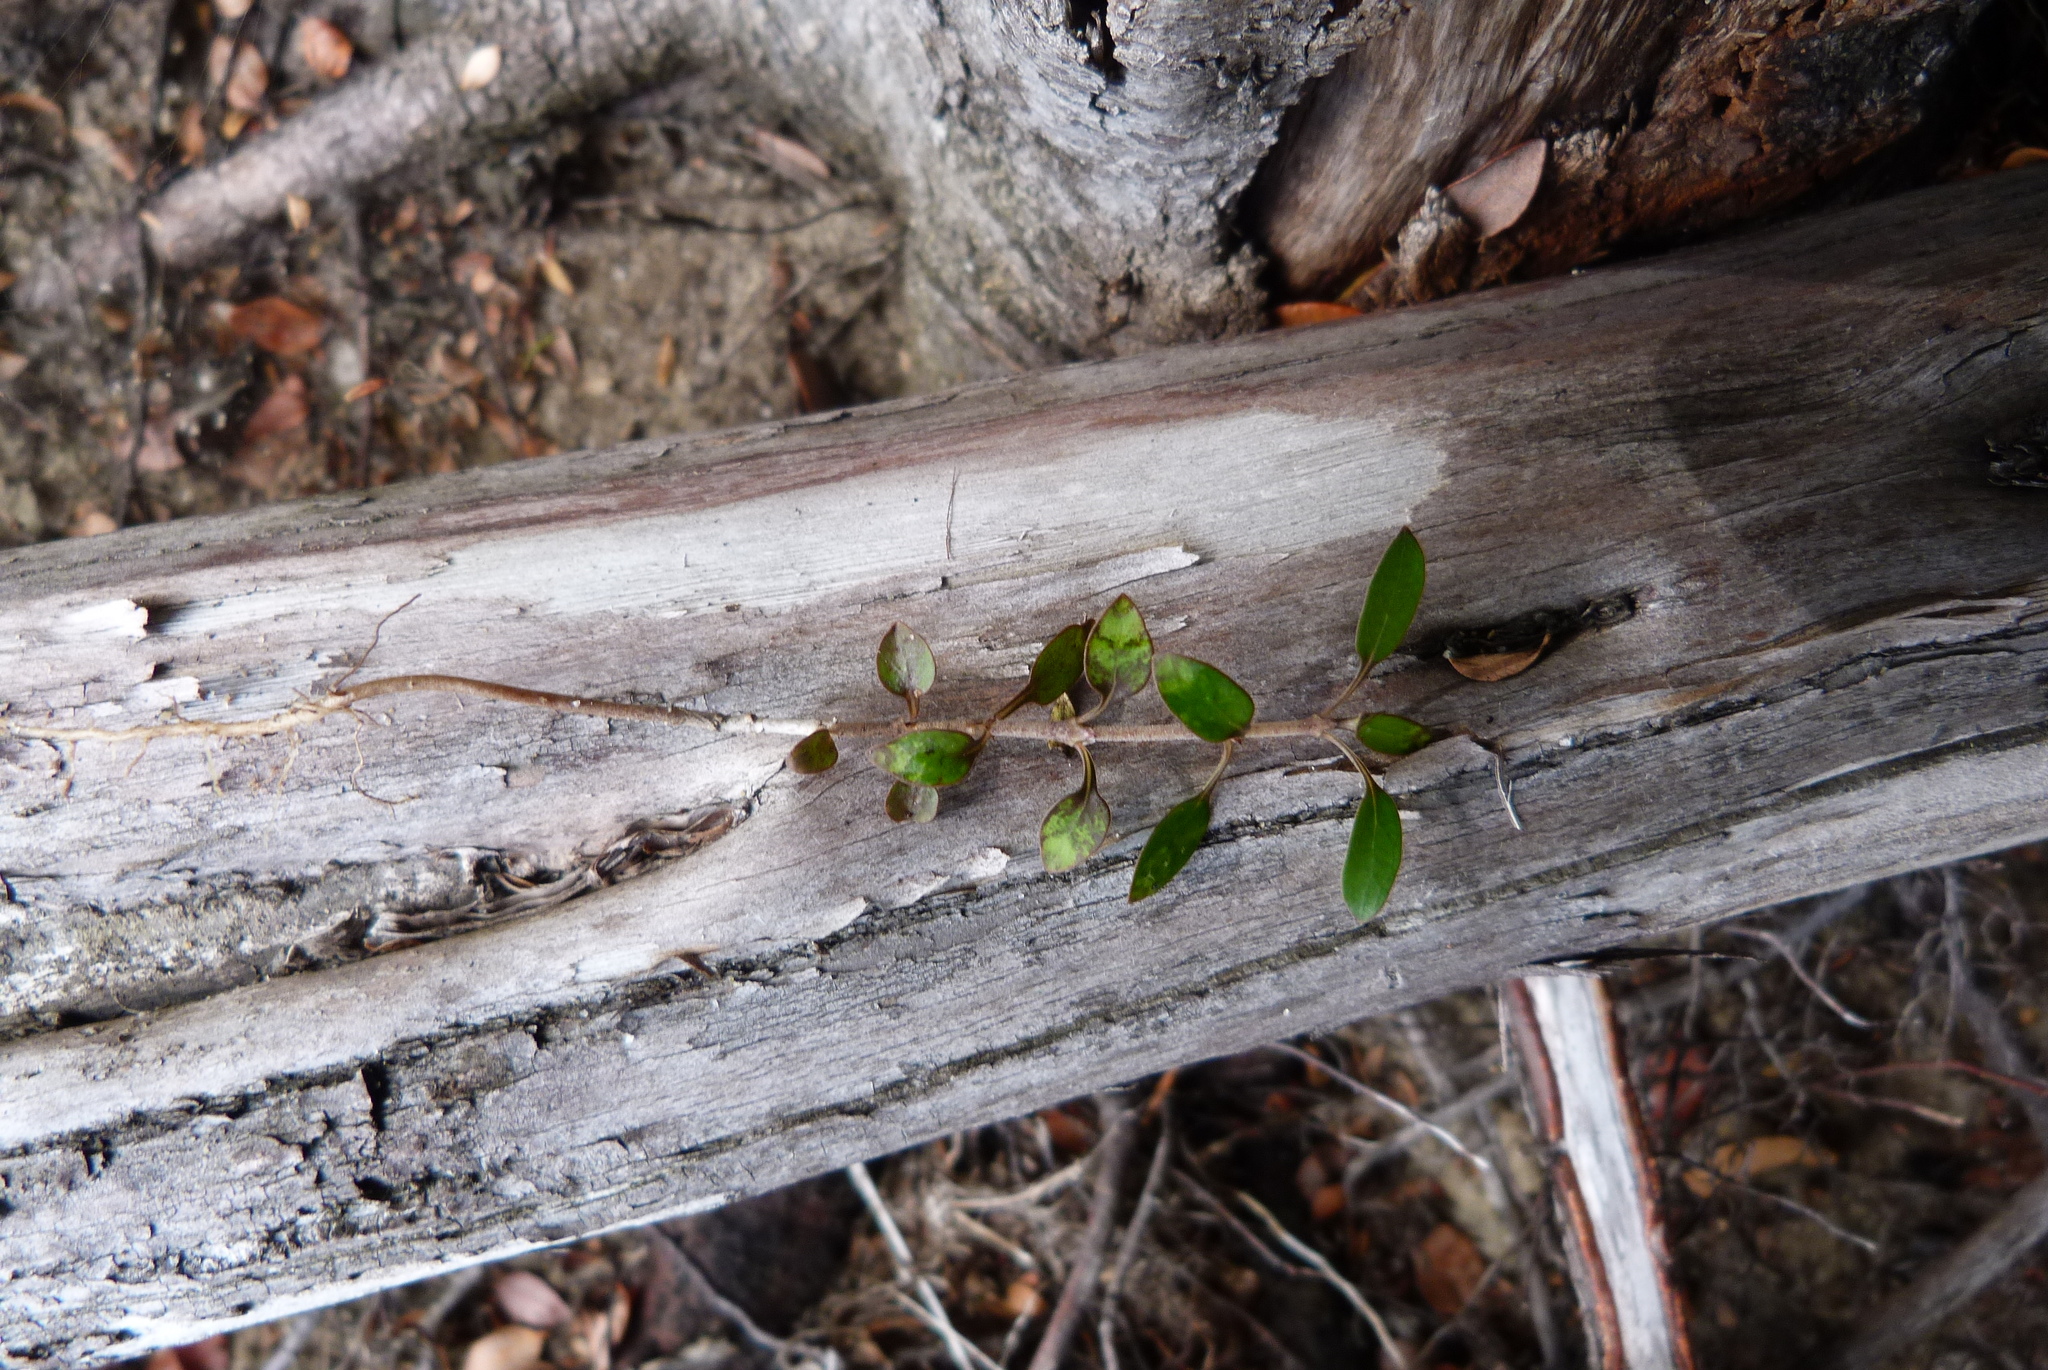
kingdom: Plantae
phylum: Tracheophyta
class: Magnoliopsida
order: Gentianales
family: Rubiaceae
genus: Coprosma
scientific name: Coprosma propinqua
